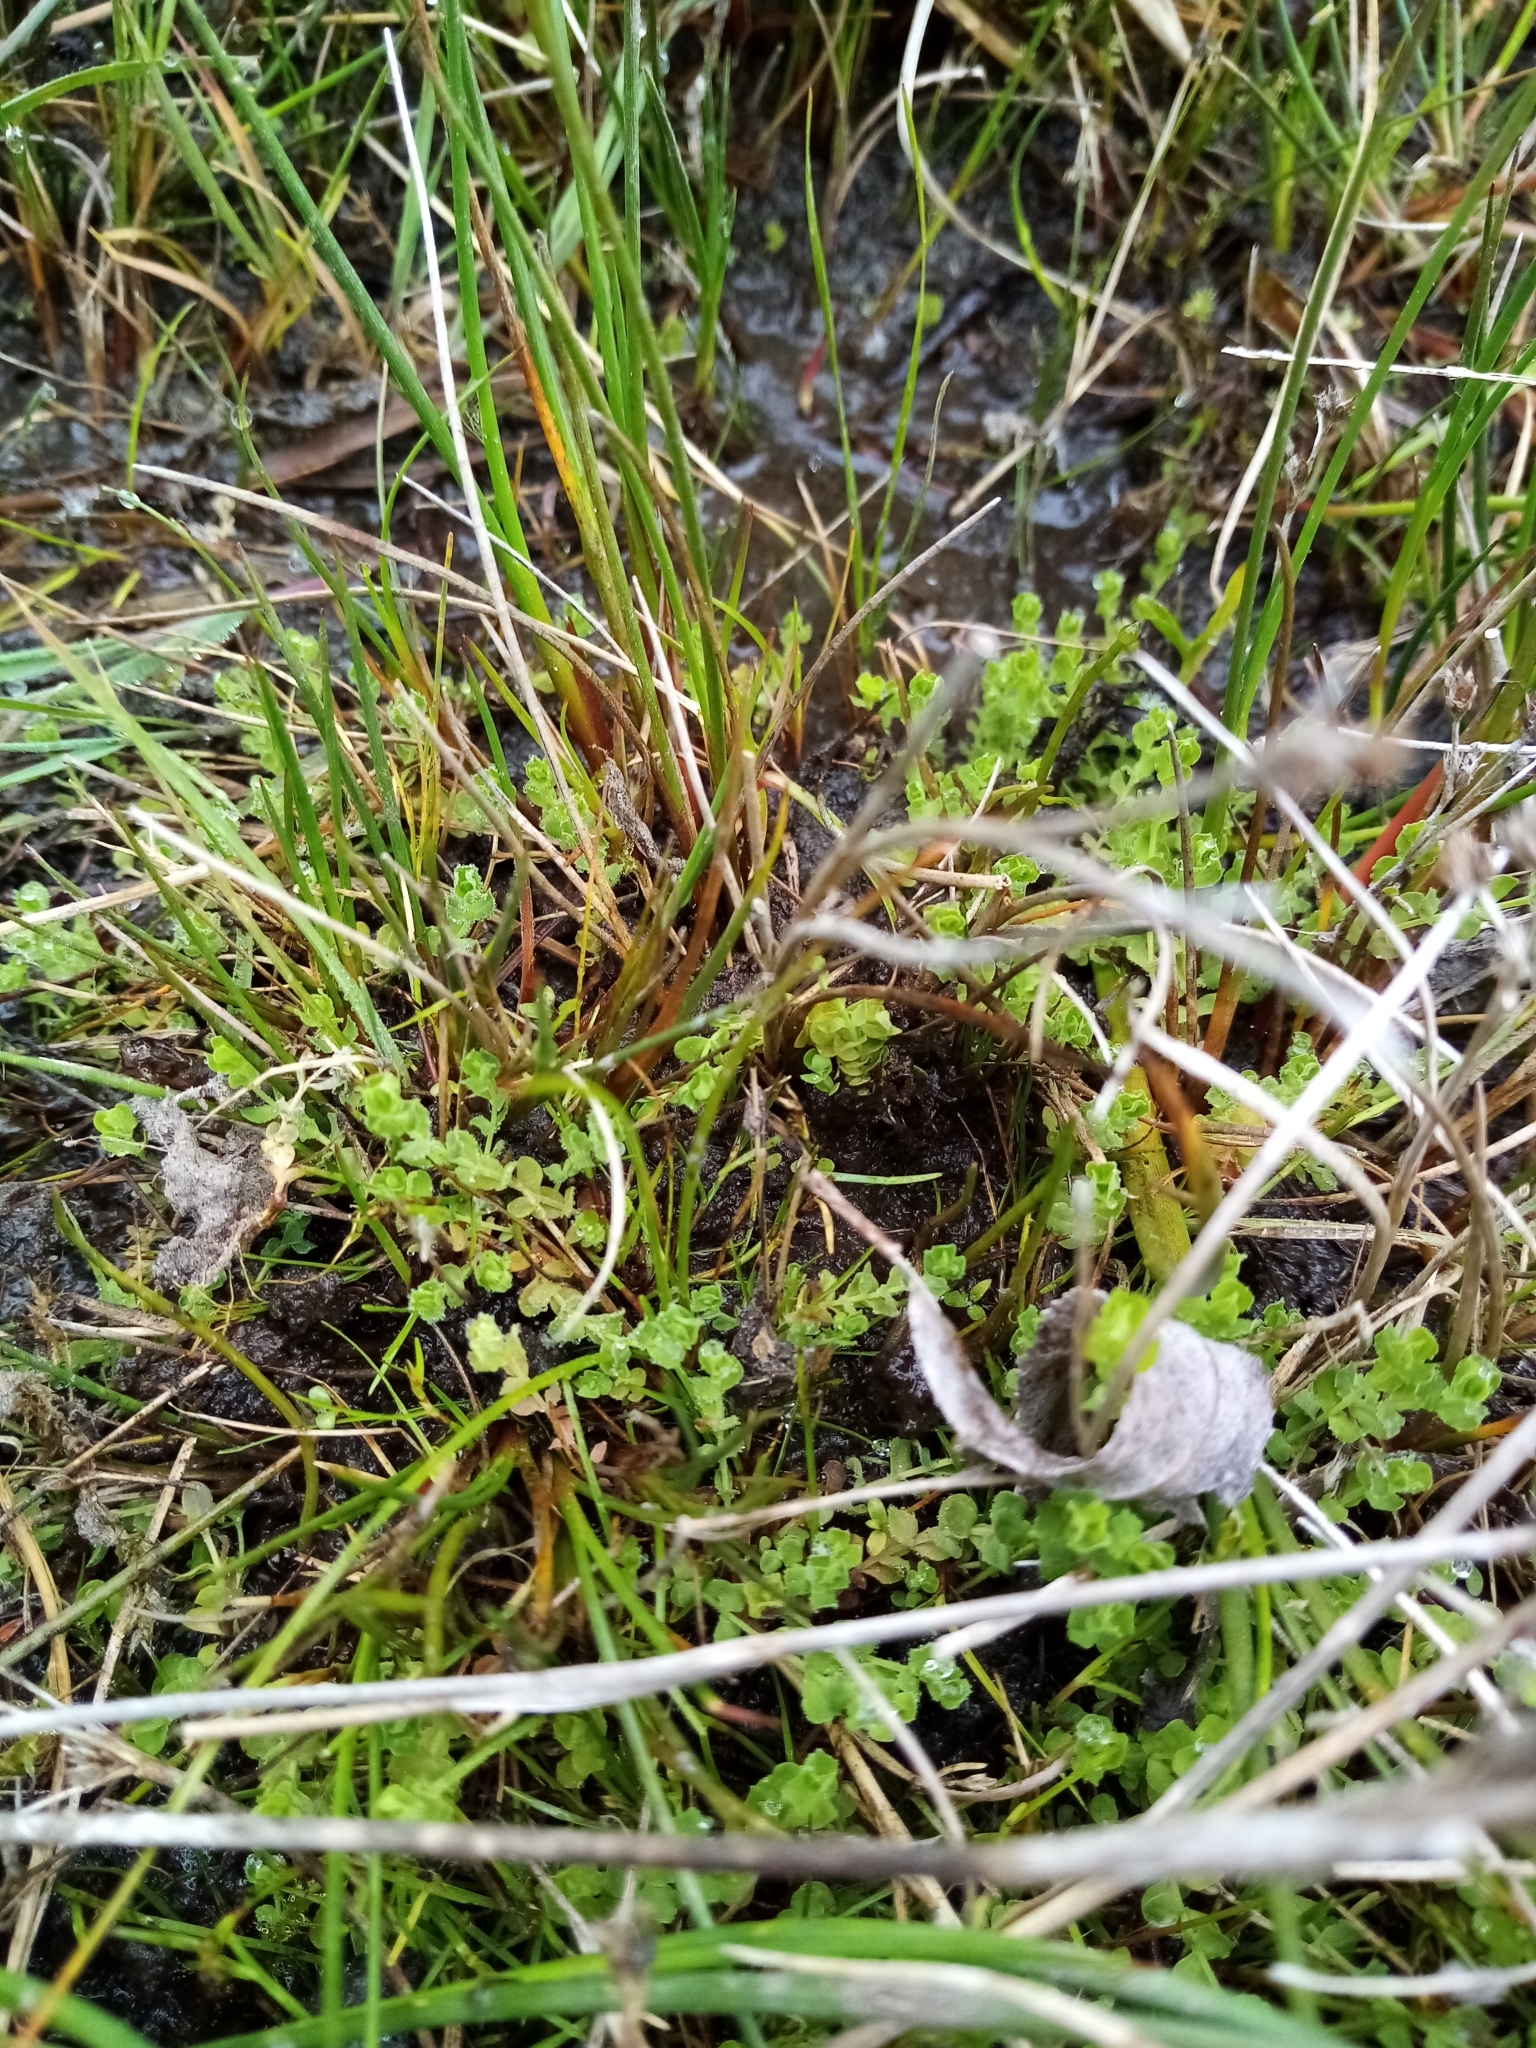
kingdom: Plantae
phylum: Tracheophyta
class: Magnoliopsida
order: Malpighiales
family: Hypericaceae
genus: Hypericum
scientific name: Hypericum japonicum
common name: Matted st. john's-wort
